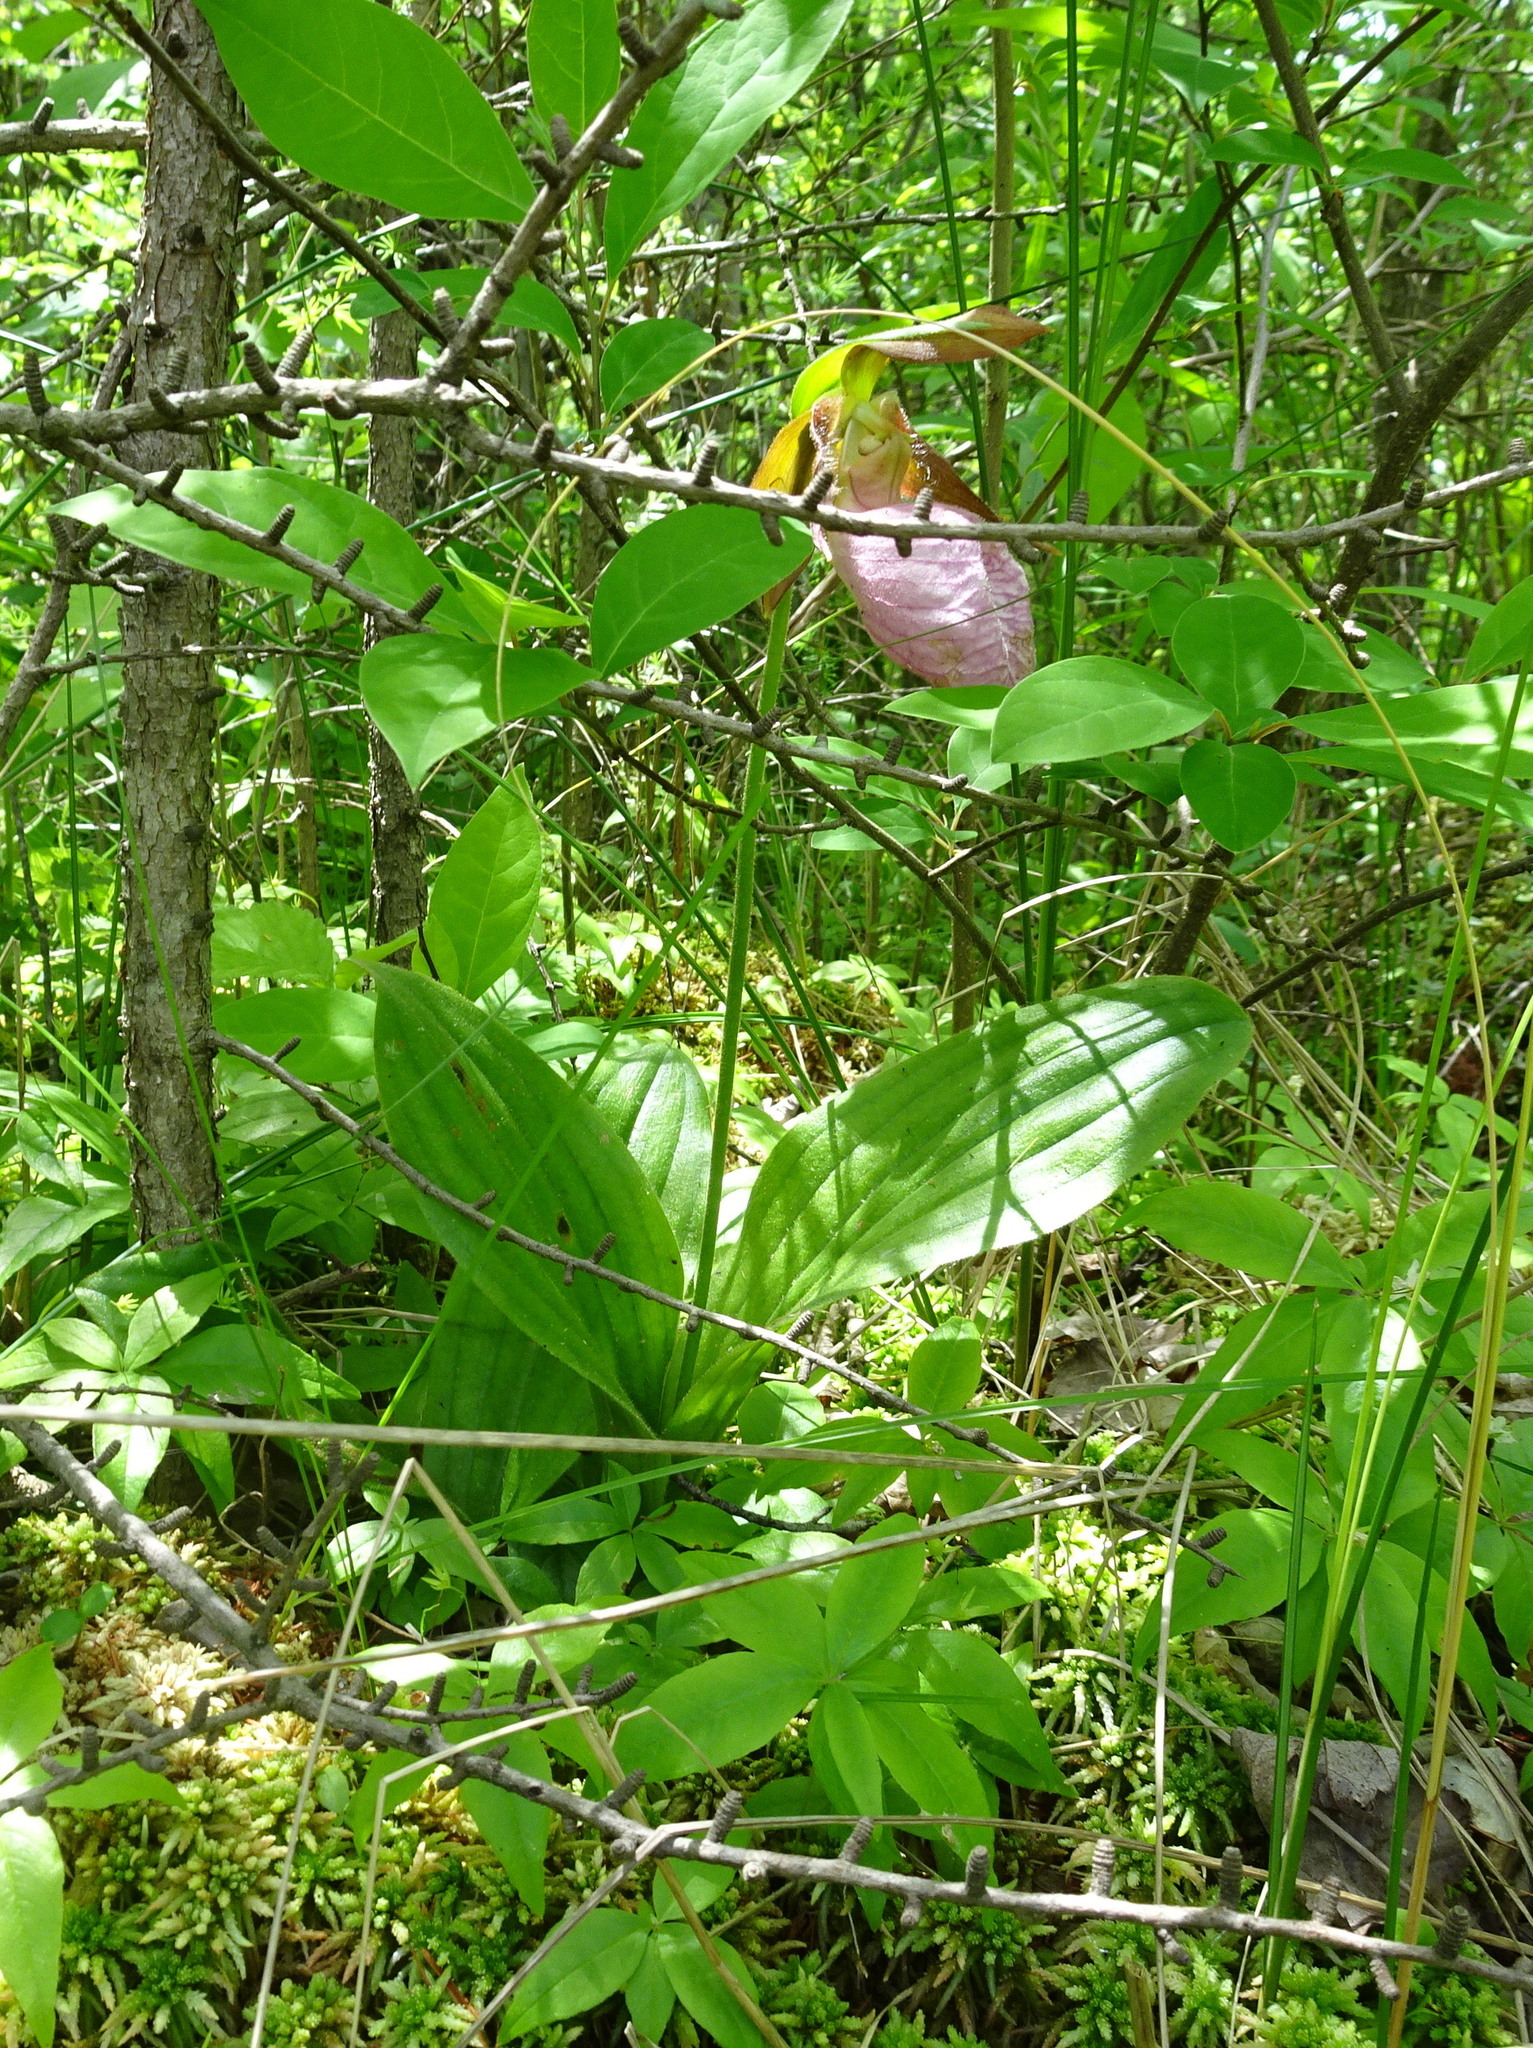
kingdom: Plantae
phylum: Tracheophyta
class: Liliopsida
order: Asparagales
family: Orchidaceae
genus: Cypripedium
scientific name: Cypripedium acaule
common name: Pink lady's-slipper
